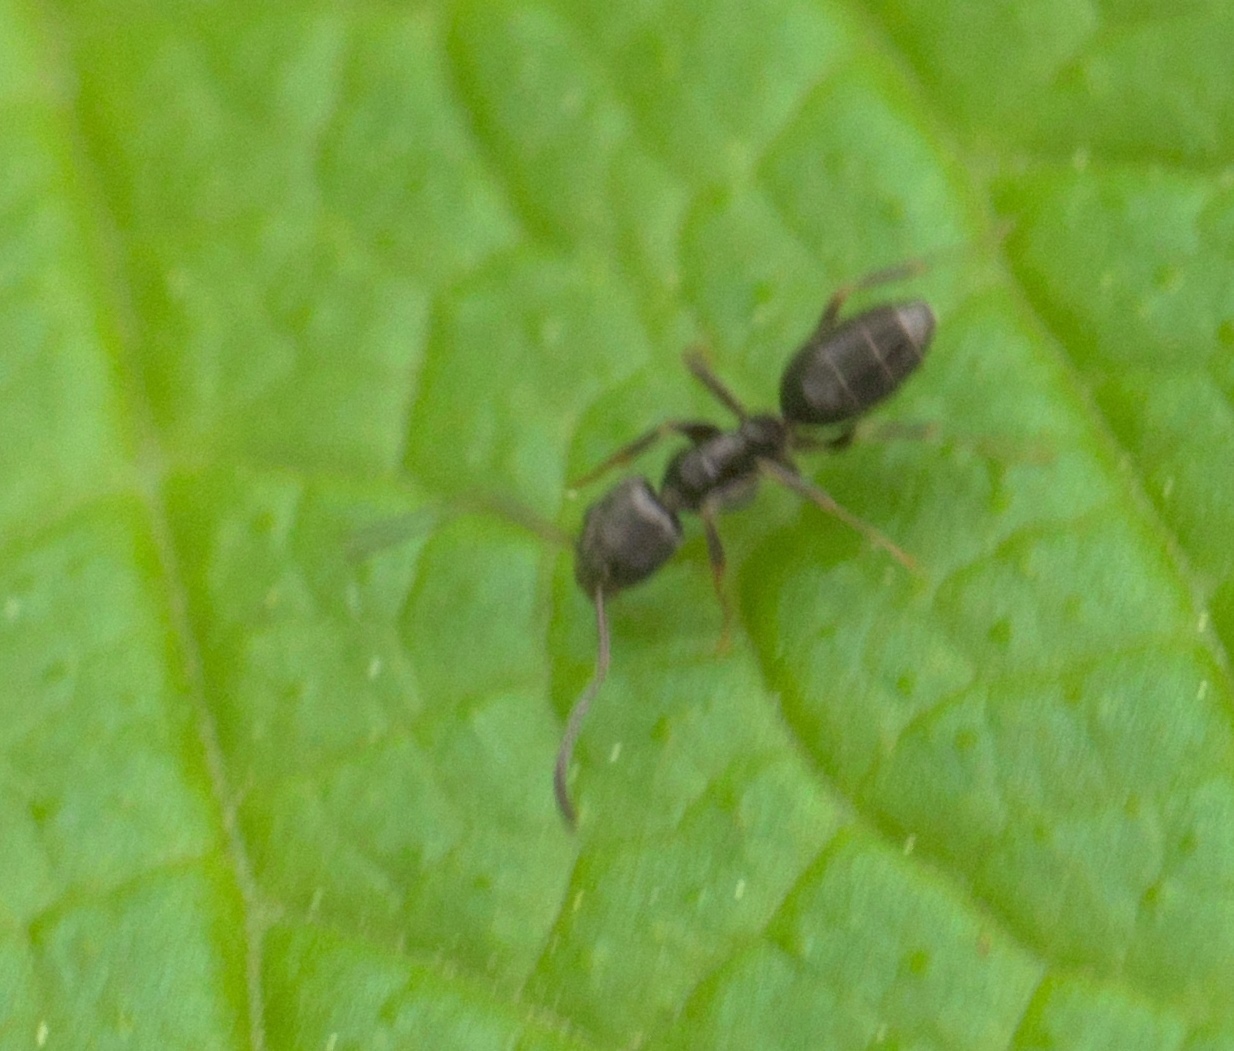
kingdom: Animalia
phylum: Arthropoda
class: Insecta
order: Hymenoptera
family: Formicidae
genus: Tapinoma
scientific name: Tapinoma sessile
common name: Odorous house ant
